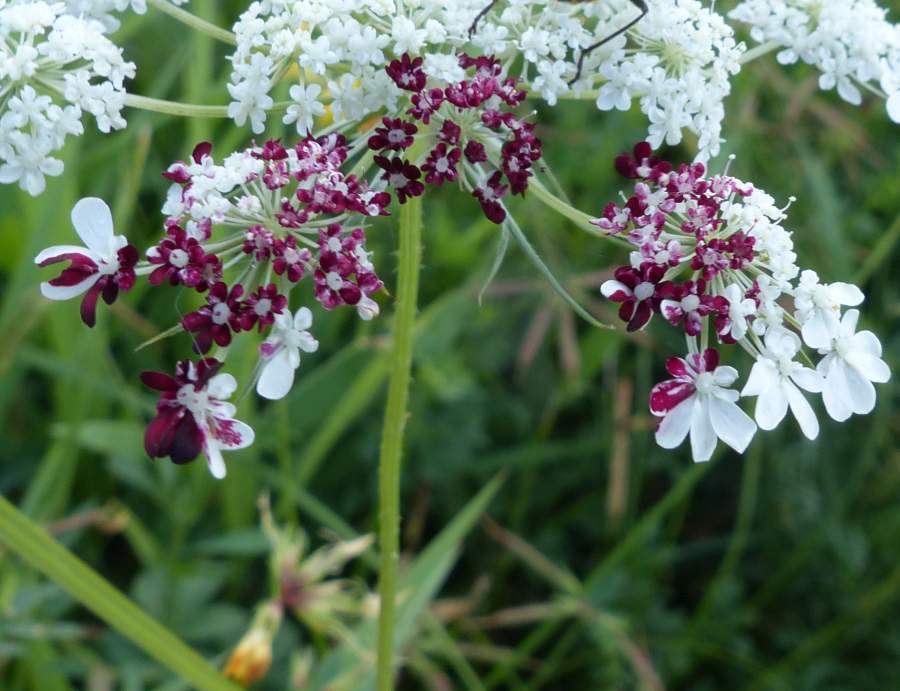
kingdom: Plantae
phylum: Tracheophyta
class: Magnoliopsida
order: Apiales
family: Apiaceae
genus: Daucus
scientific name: Daucus carota
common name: Wild carrot
